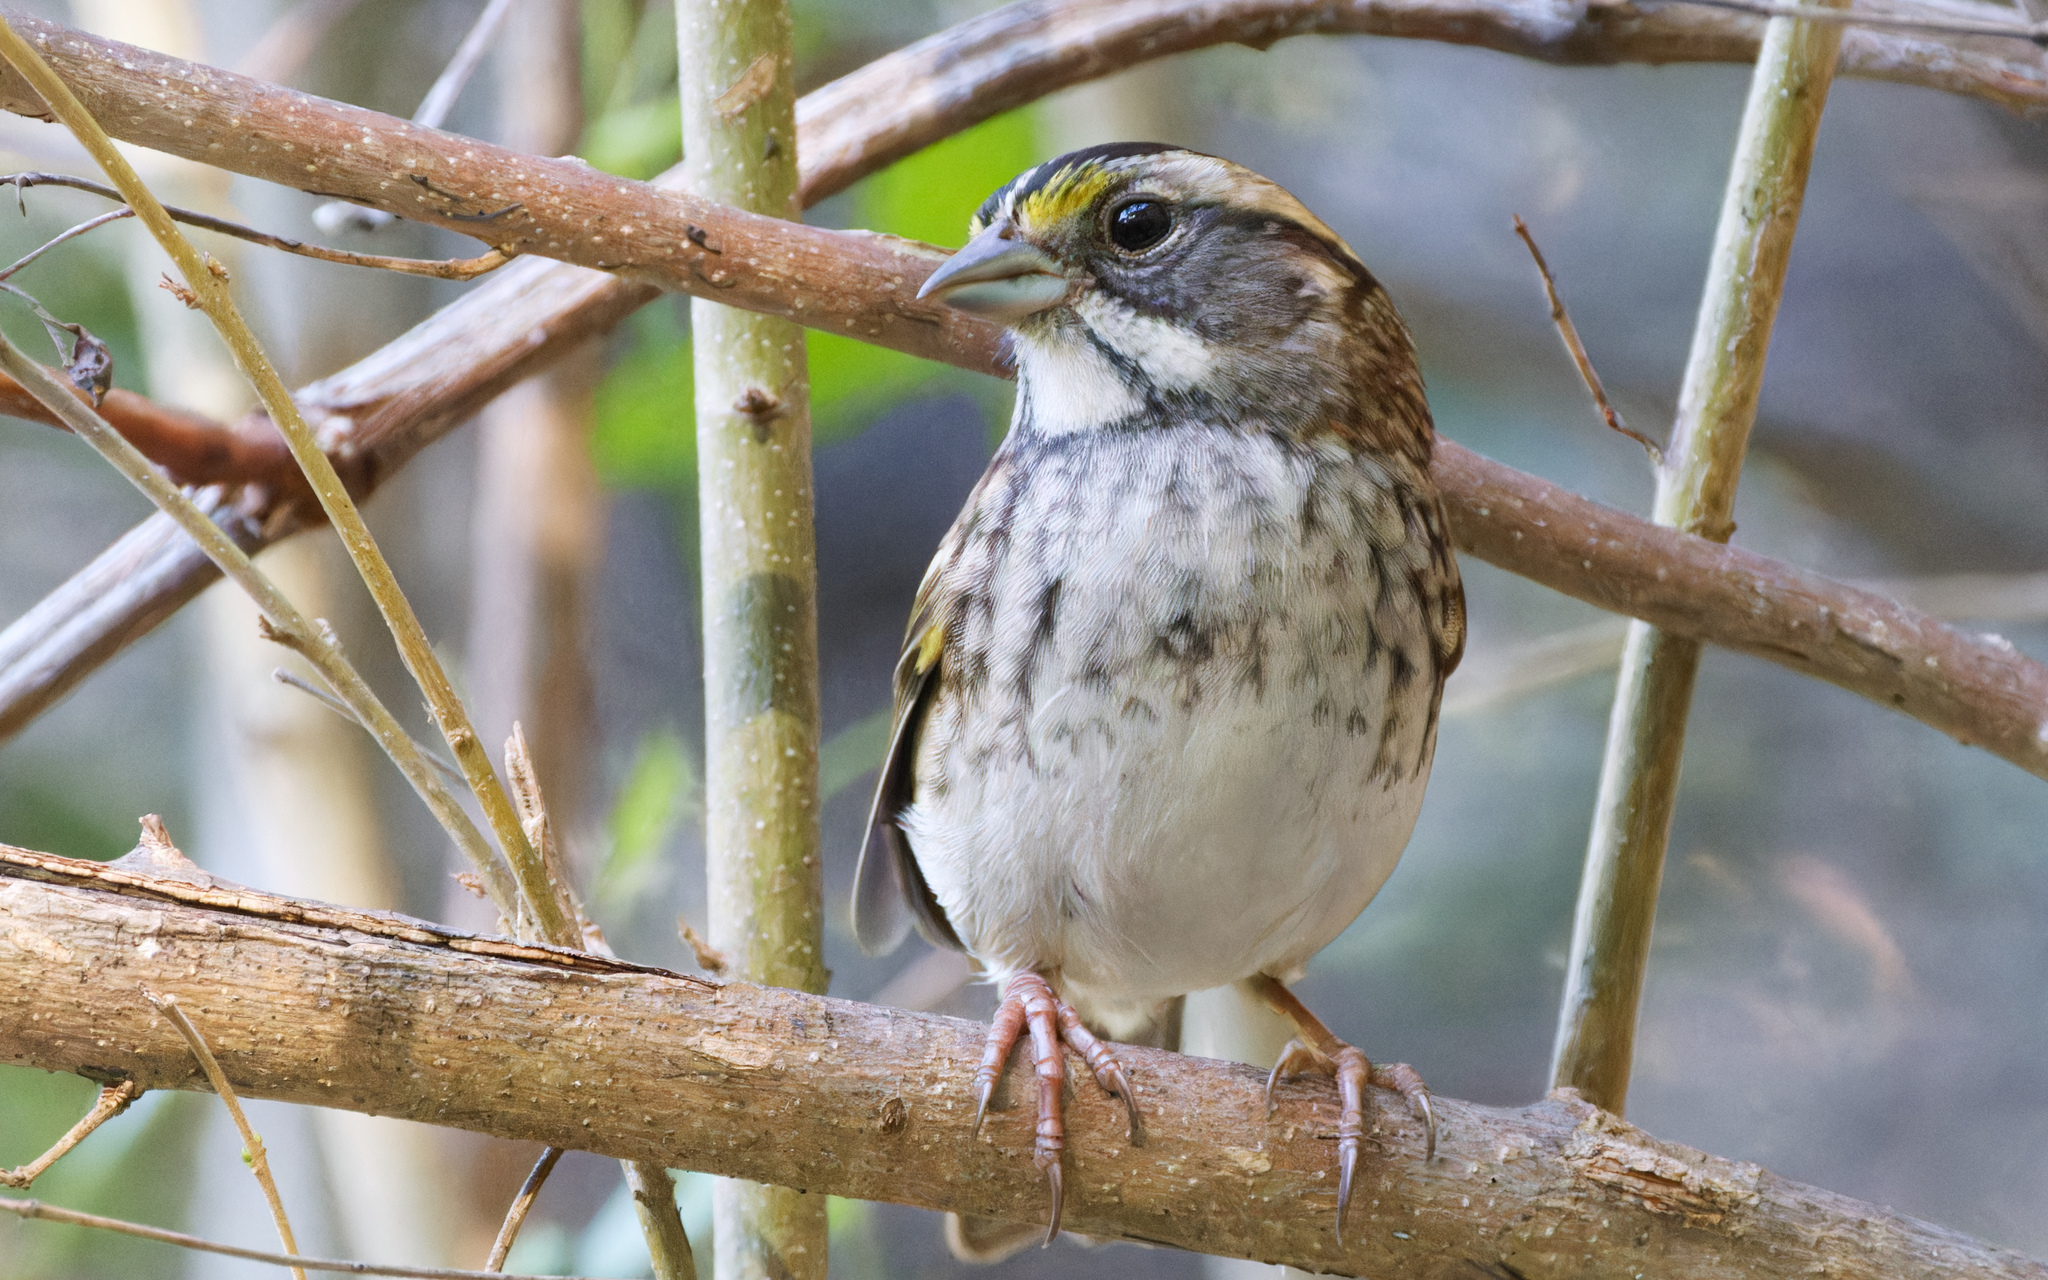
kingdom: Animalia
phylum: Chordata
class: Aves
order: Passeriformes
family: Passerellidae
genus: Zonotrichia
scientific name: Zonotrichia albicollis
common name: White-throated sparrow
